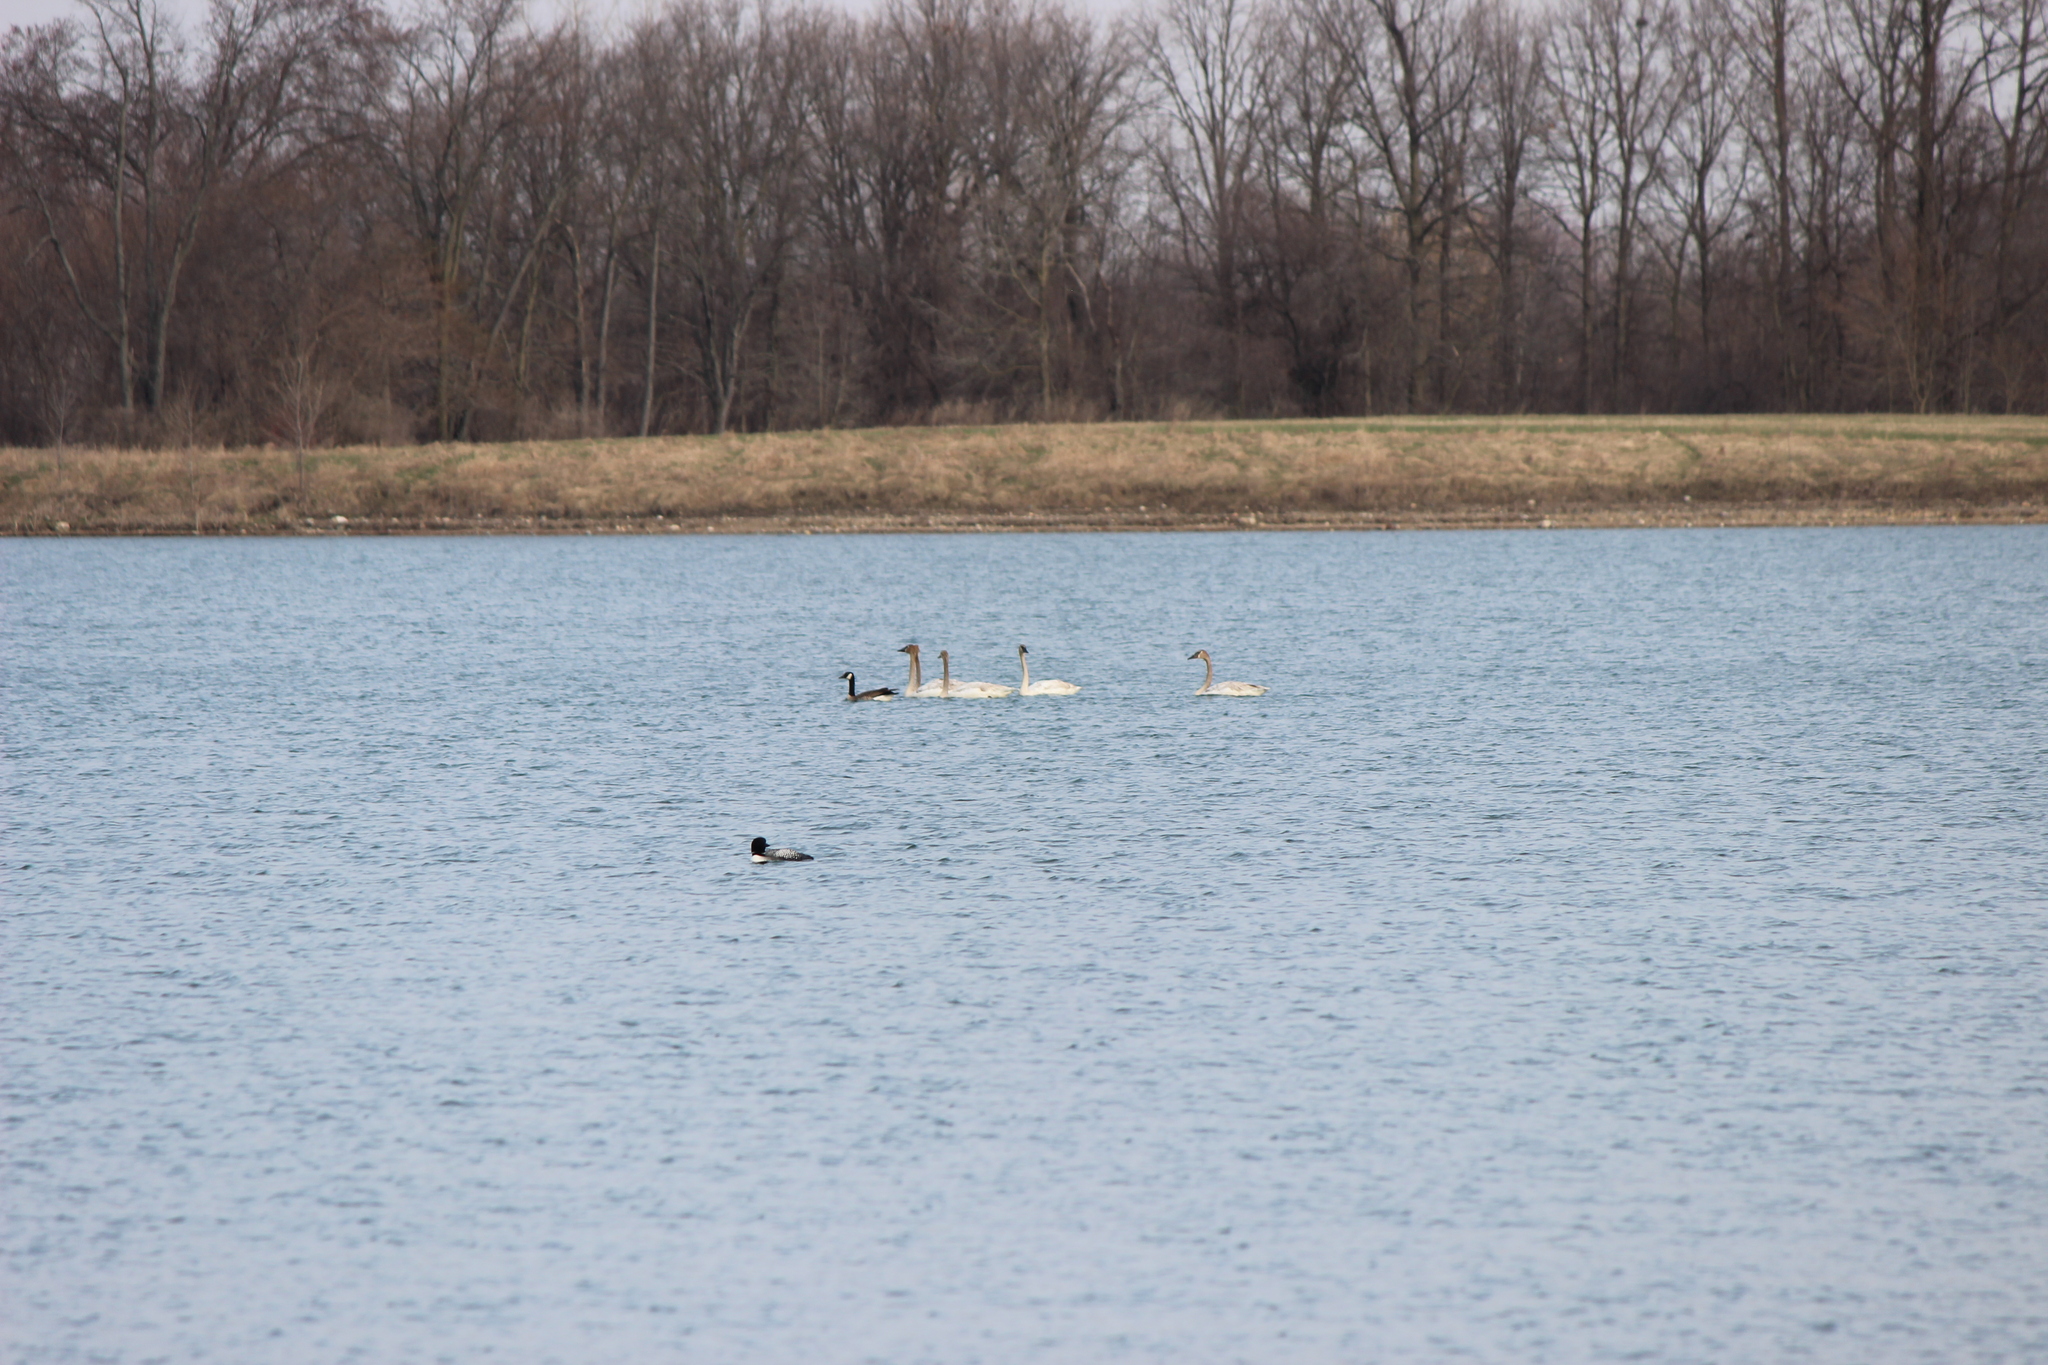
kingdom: Animalia
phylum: Chordata
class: Aves
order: Anseriformes
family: Anatidae
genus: Cygnus
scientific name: Cygnus buccinator
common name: Trumpeter swan
